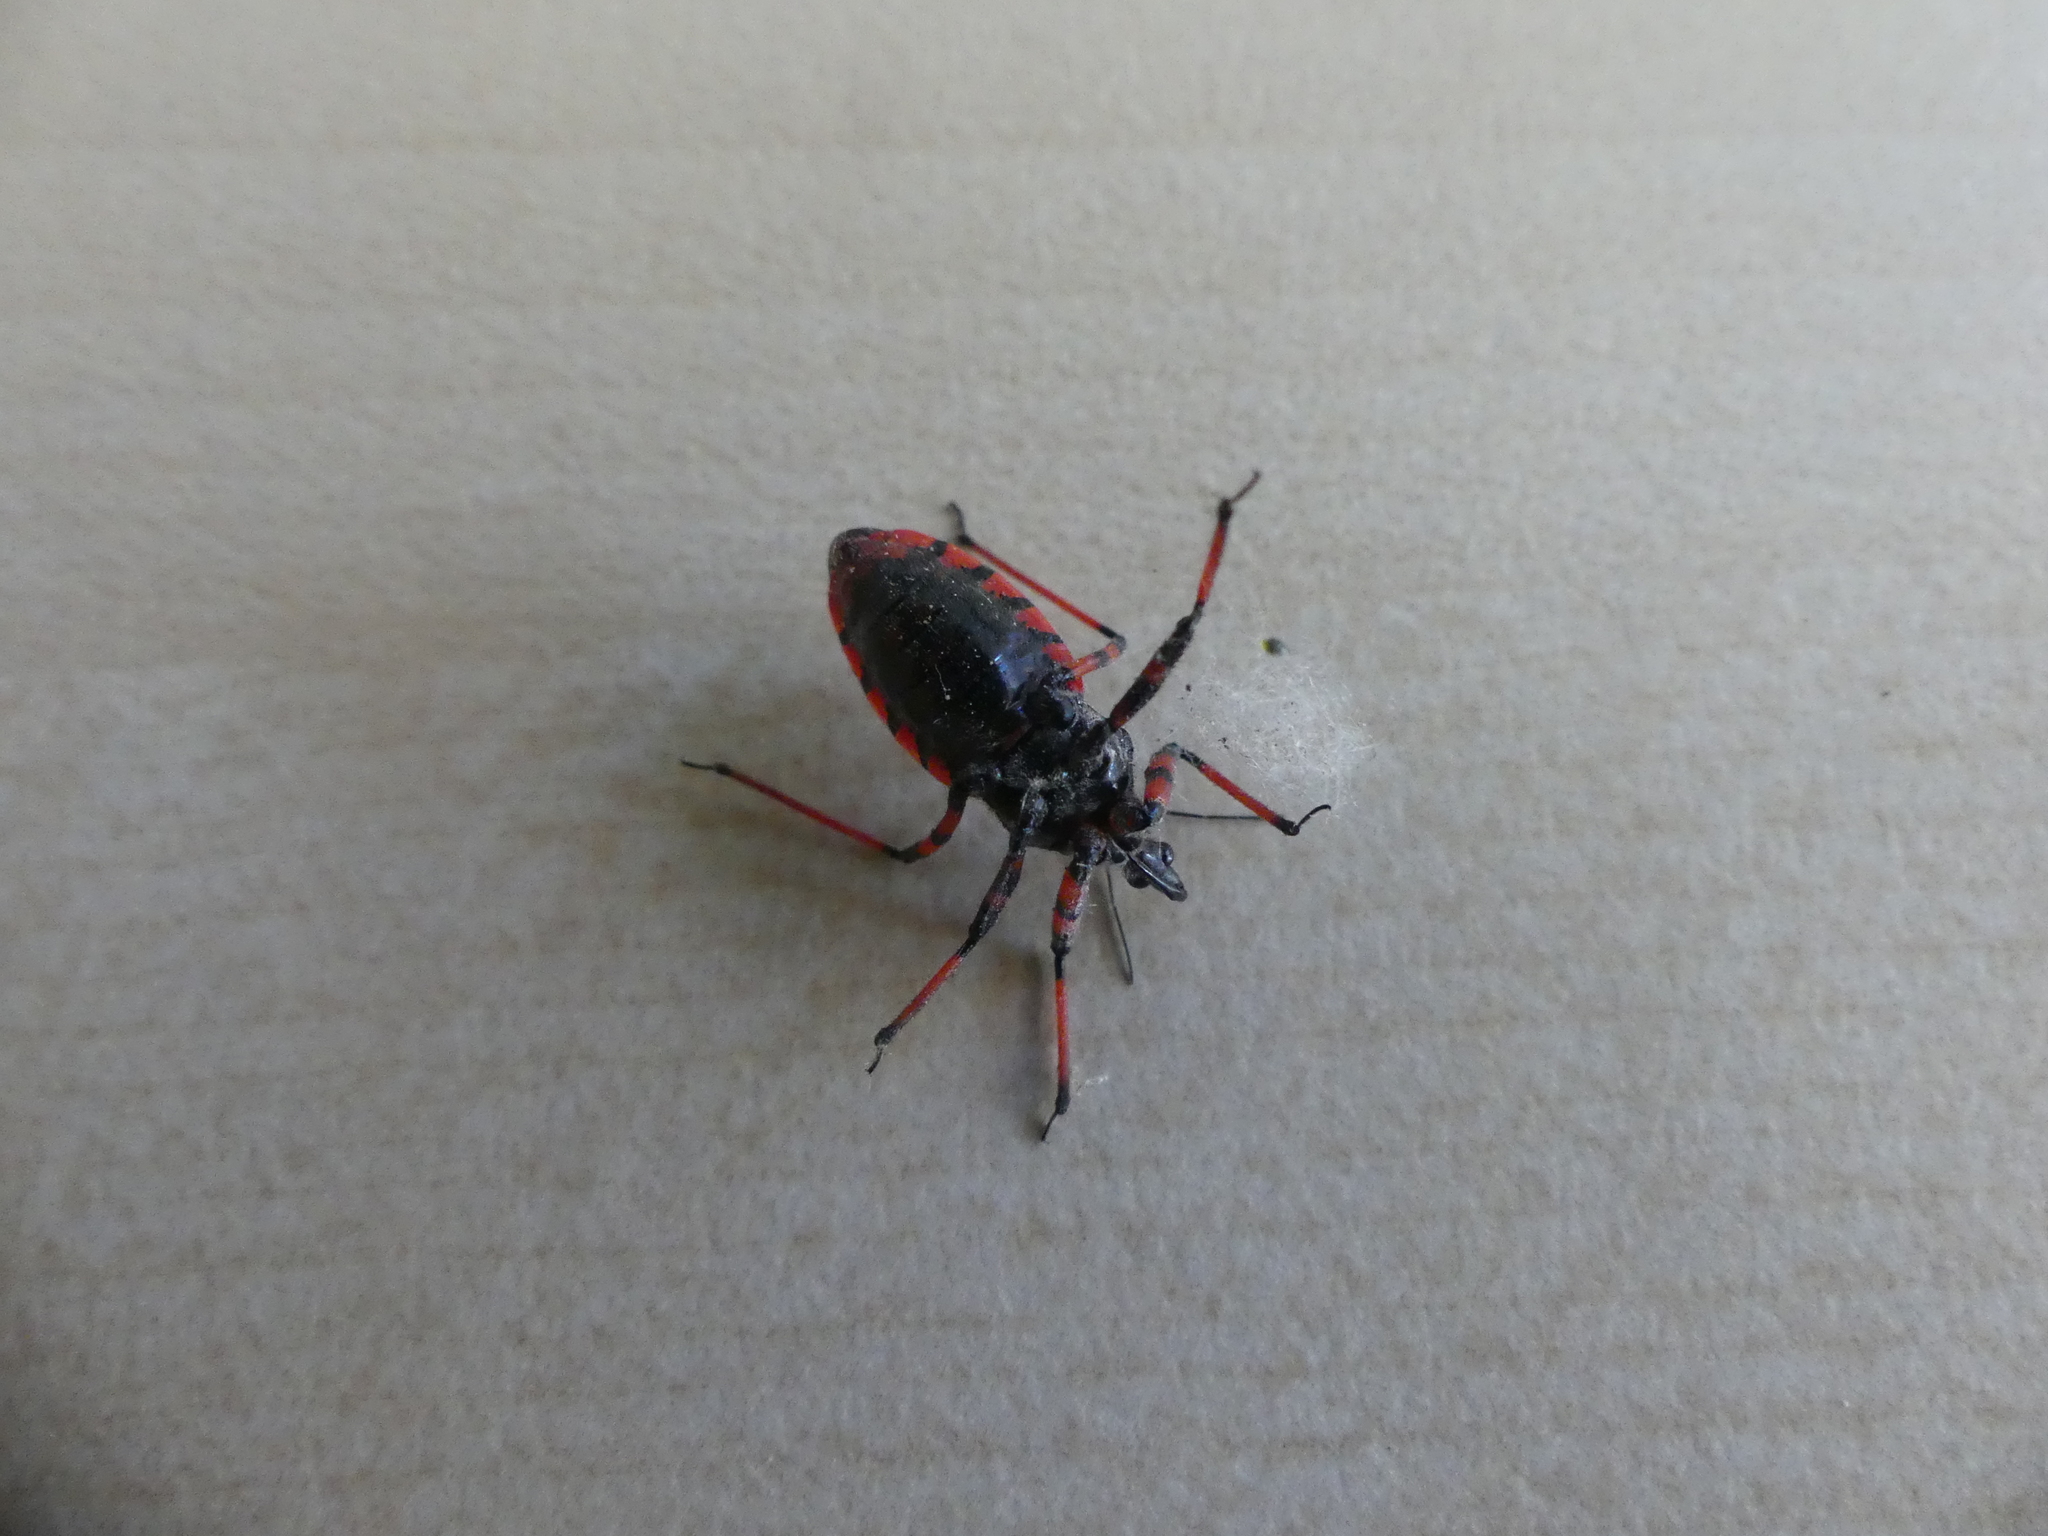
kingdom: Animalia
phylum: Arthropoda
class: Insecta
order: Hemiptera
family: Reduviidae
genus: Rhynocoris
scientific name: Rhynocoris annulatus
